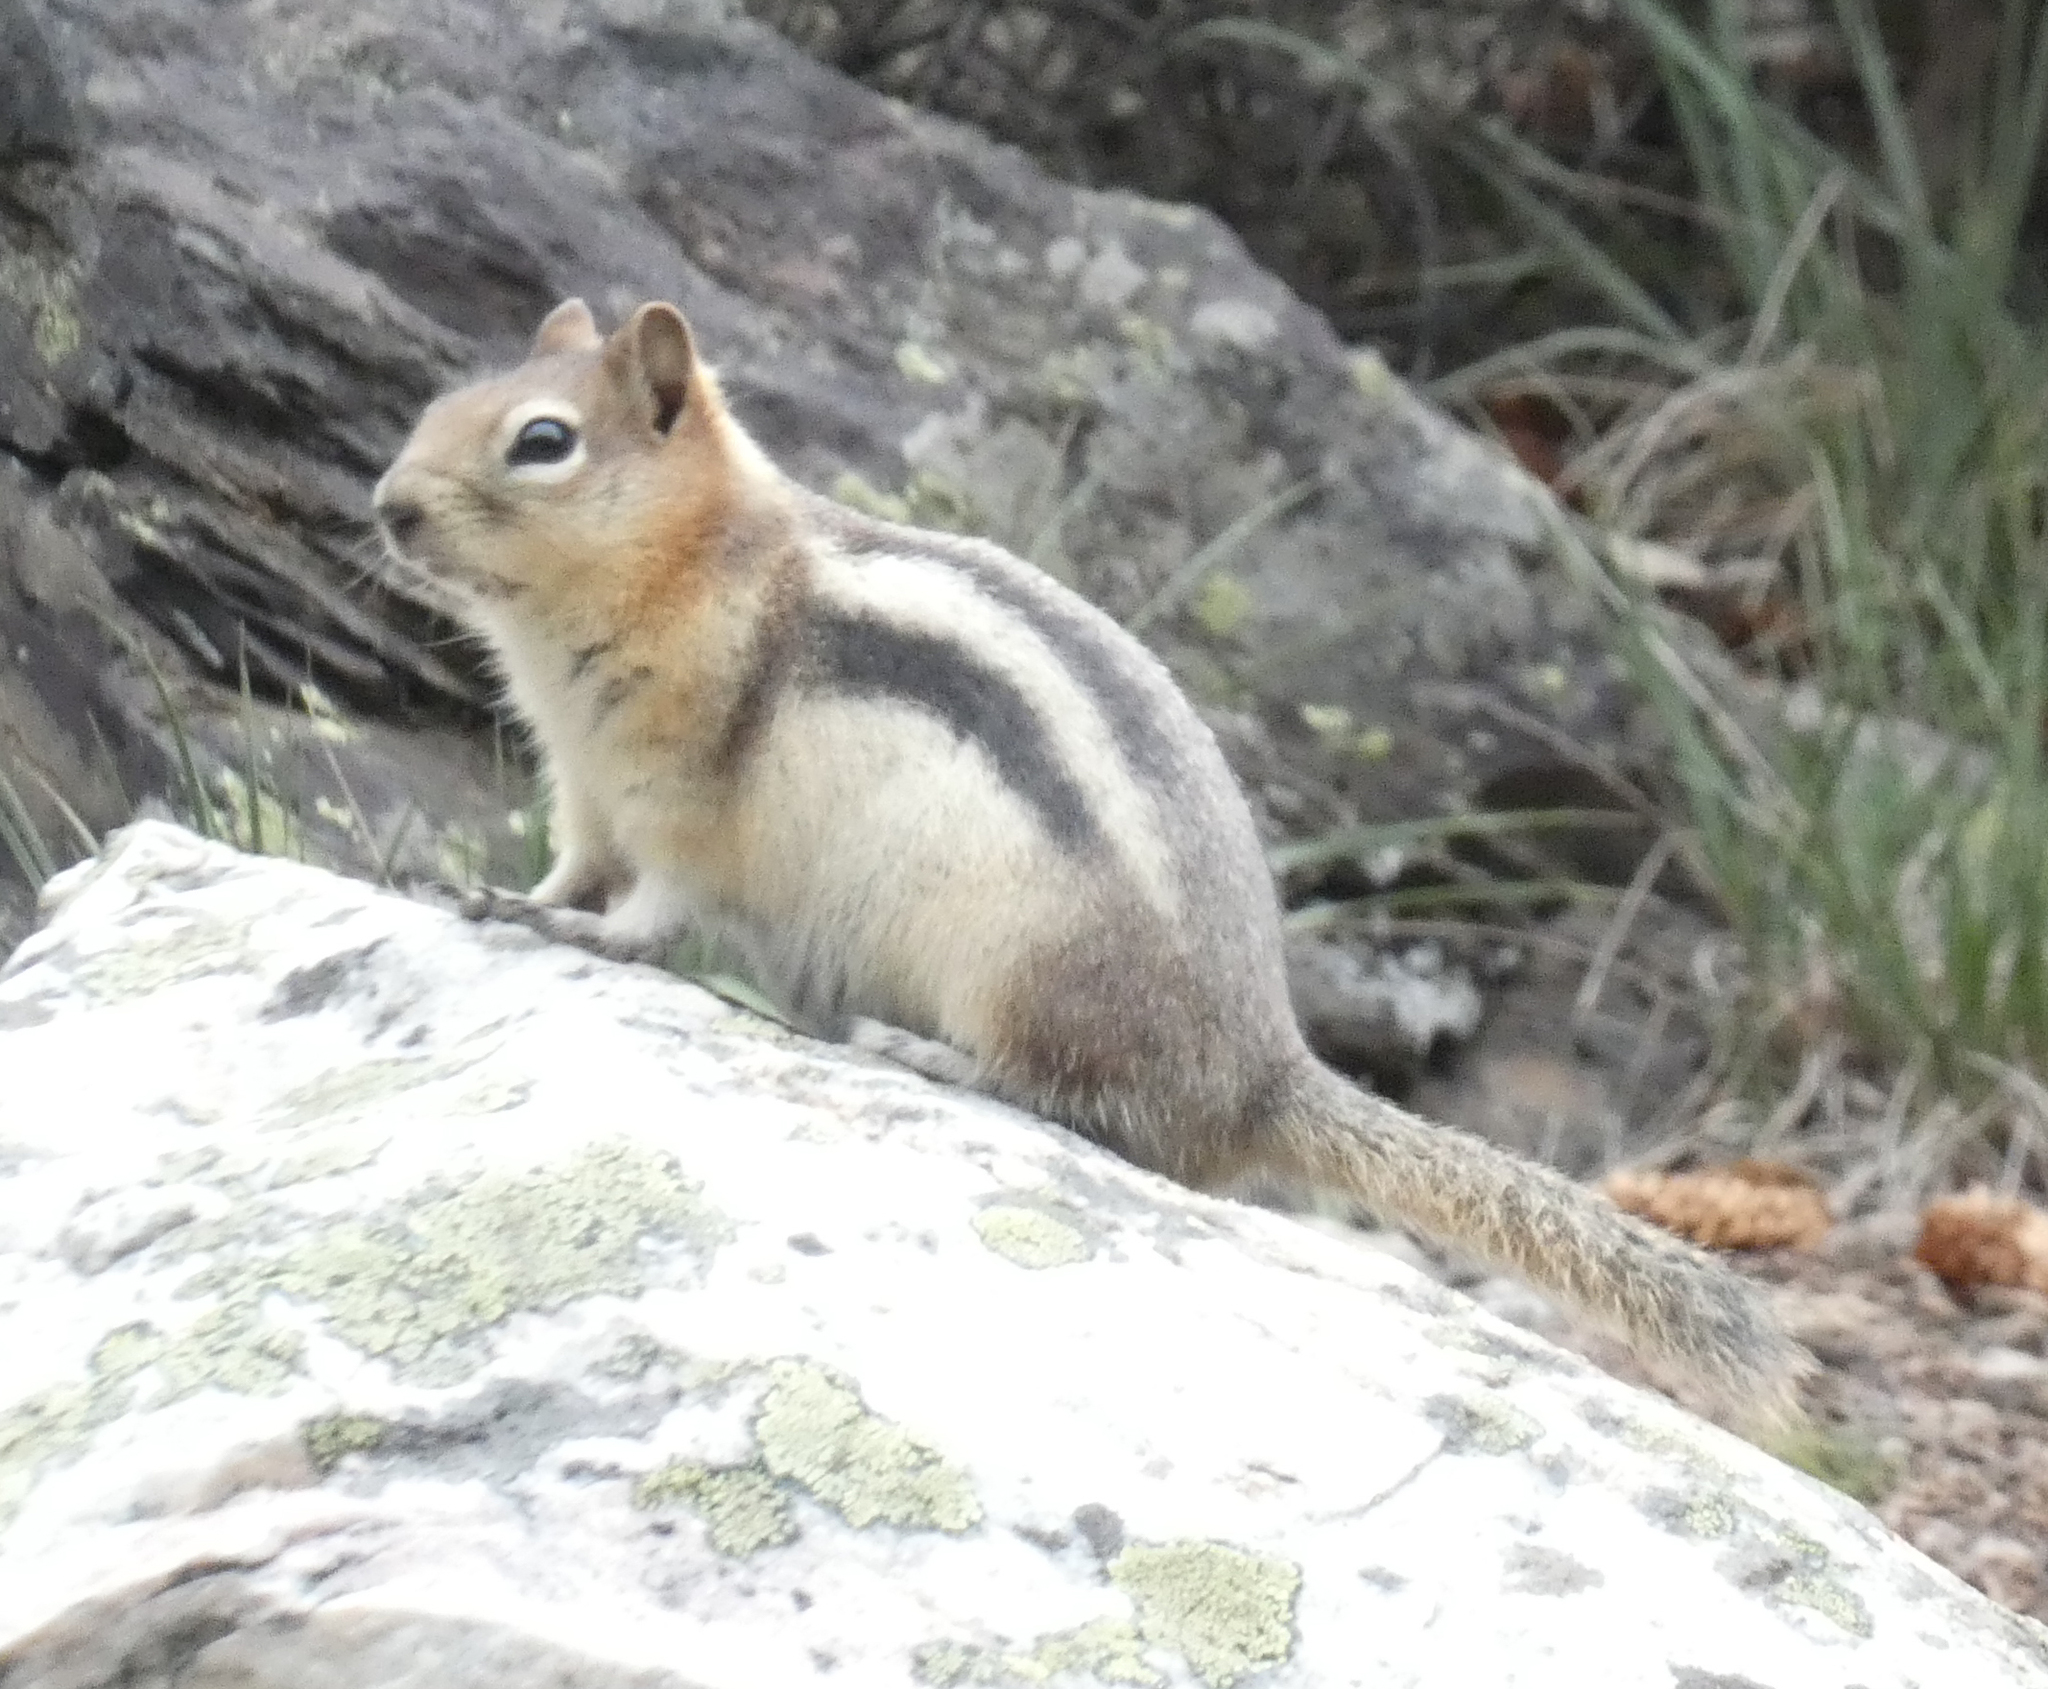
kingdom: Animalia
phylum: Chordata
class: Mammalia
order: Rodentia
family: Sciuridae
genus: Callospermophilus
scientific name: Callospermophilus lateralis
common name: Golden-mantled ground squirrel
